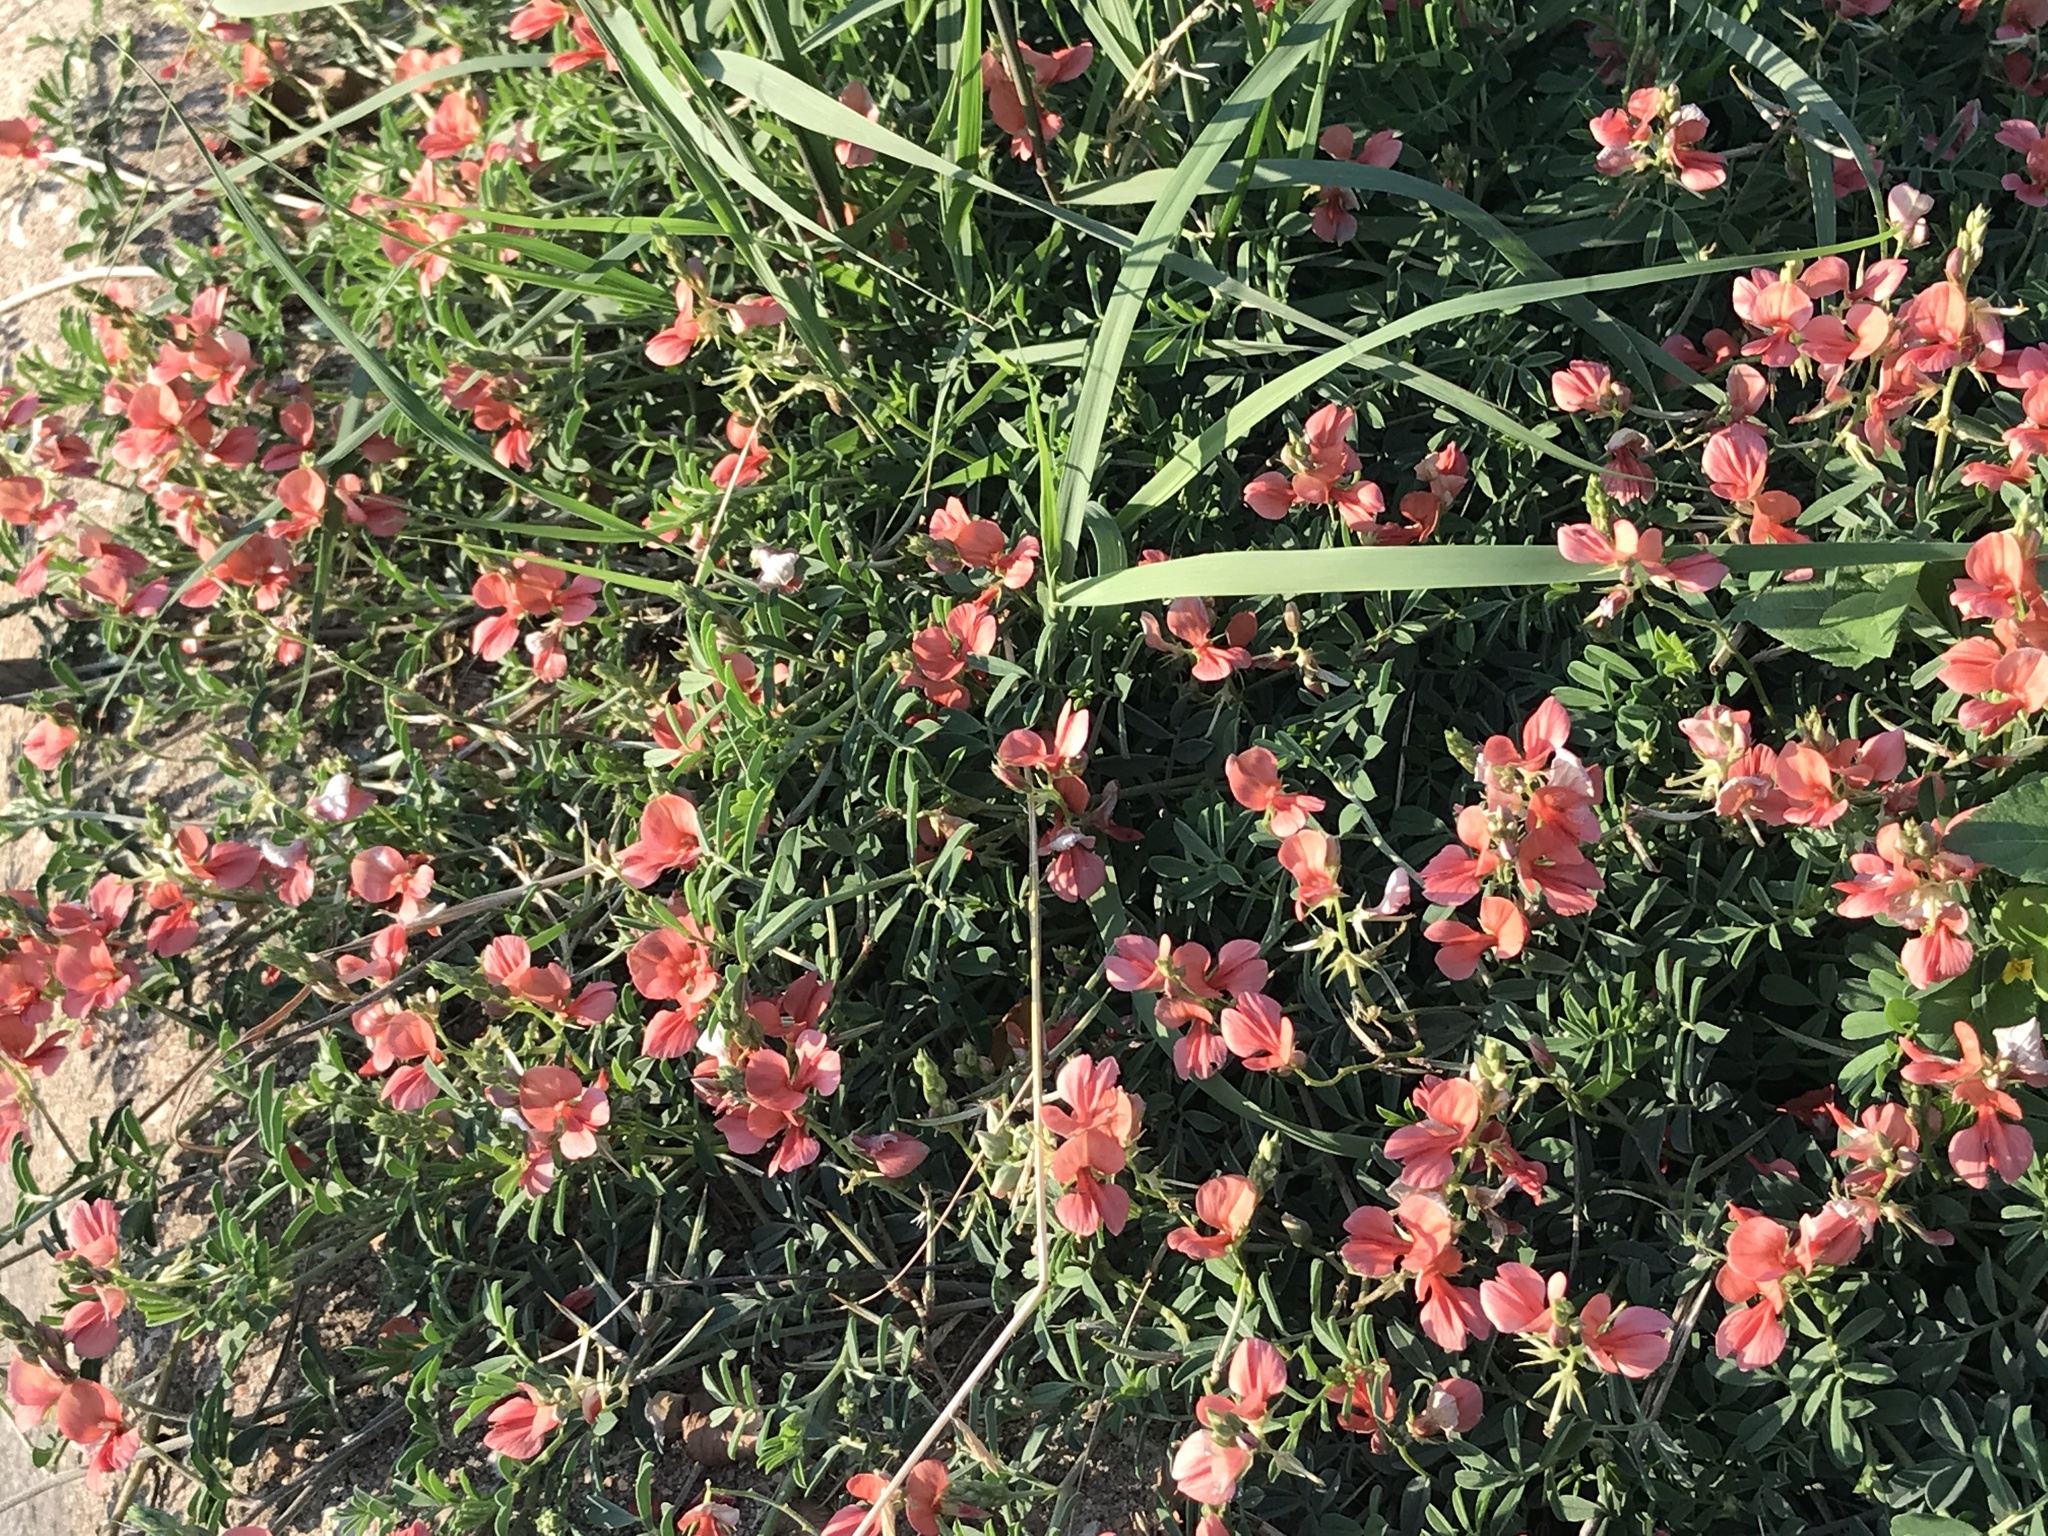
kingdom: Plantae
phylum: Tracheophyta
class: Magnoliopsida
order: Fabales
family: Fabaceae
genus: Indigofera
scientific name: Indigofera miniata
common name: Coast indigo
